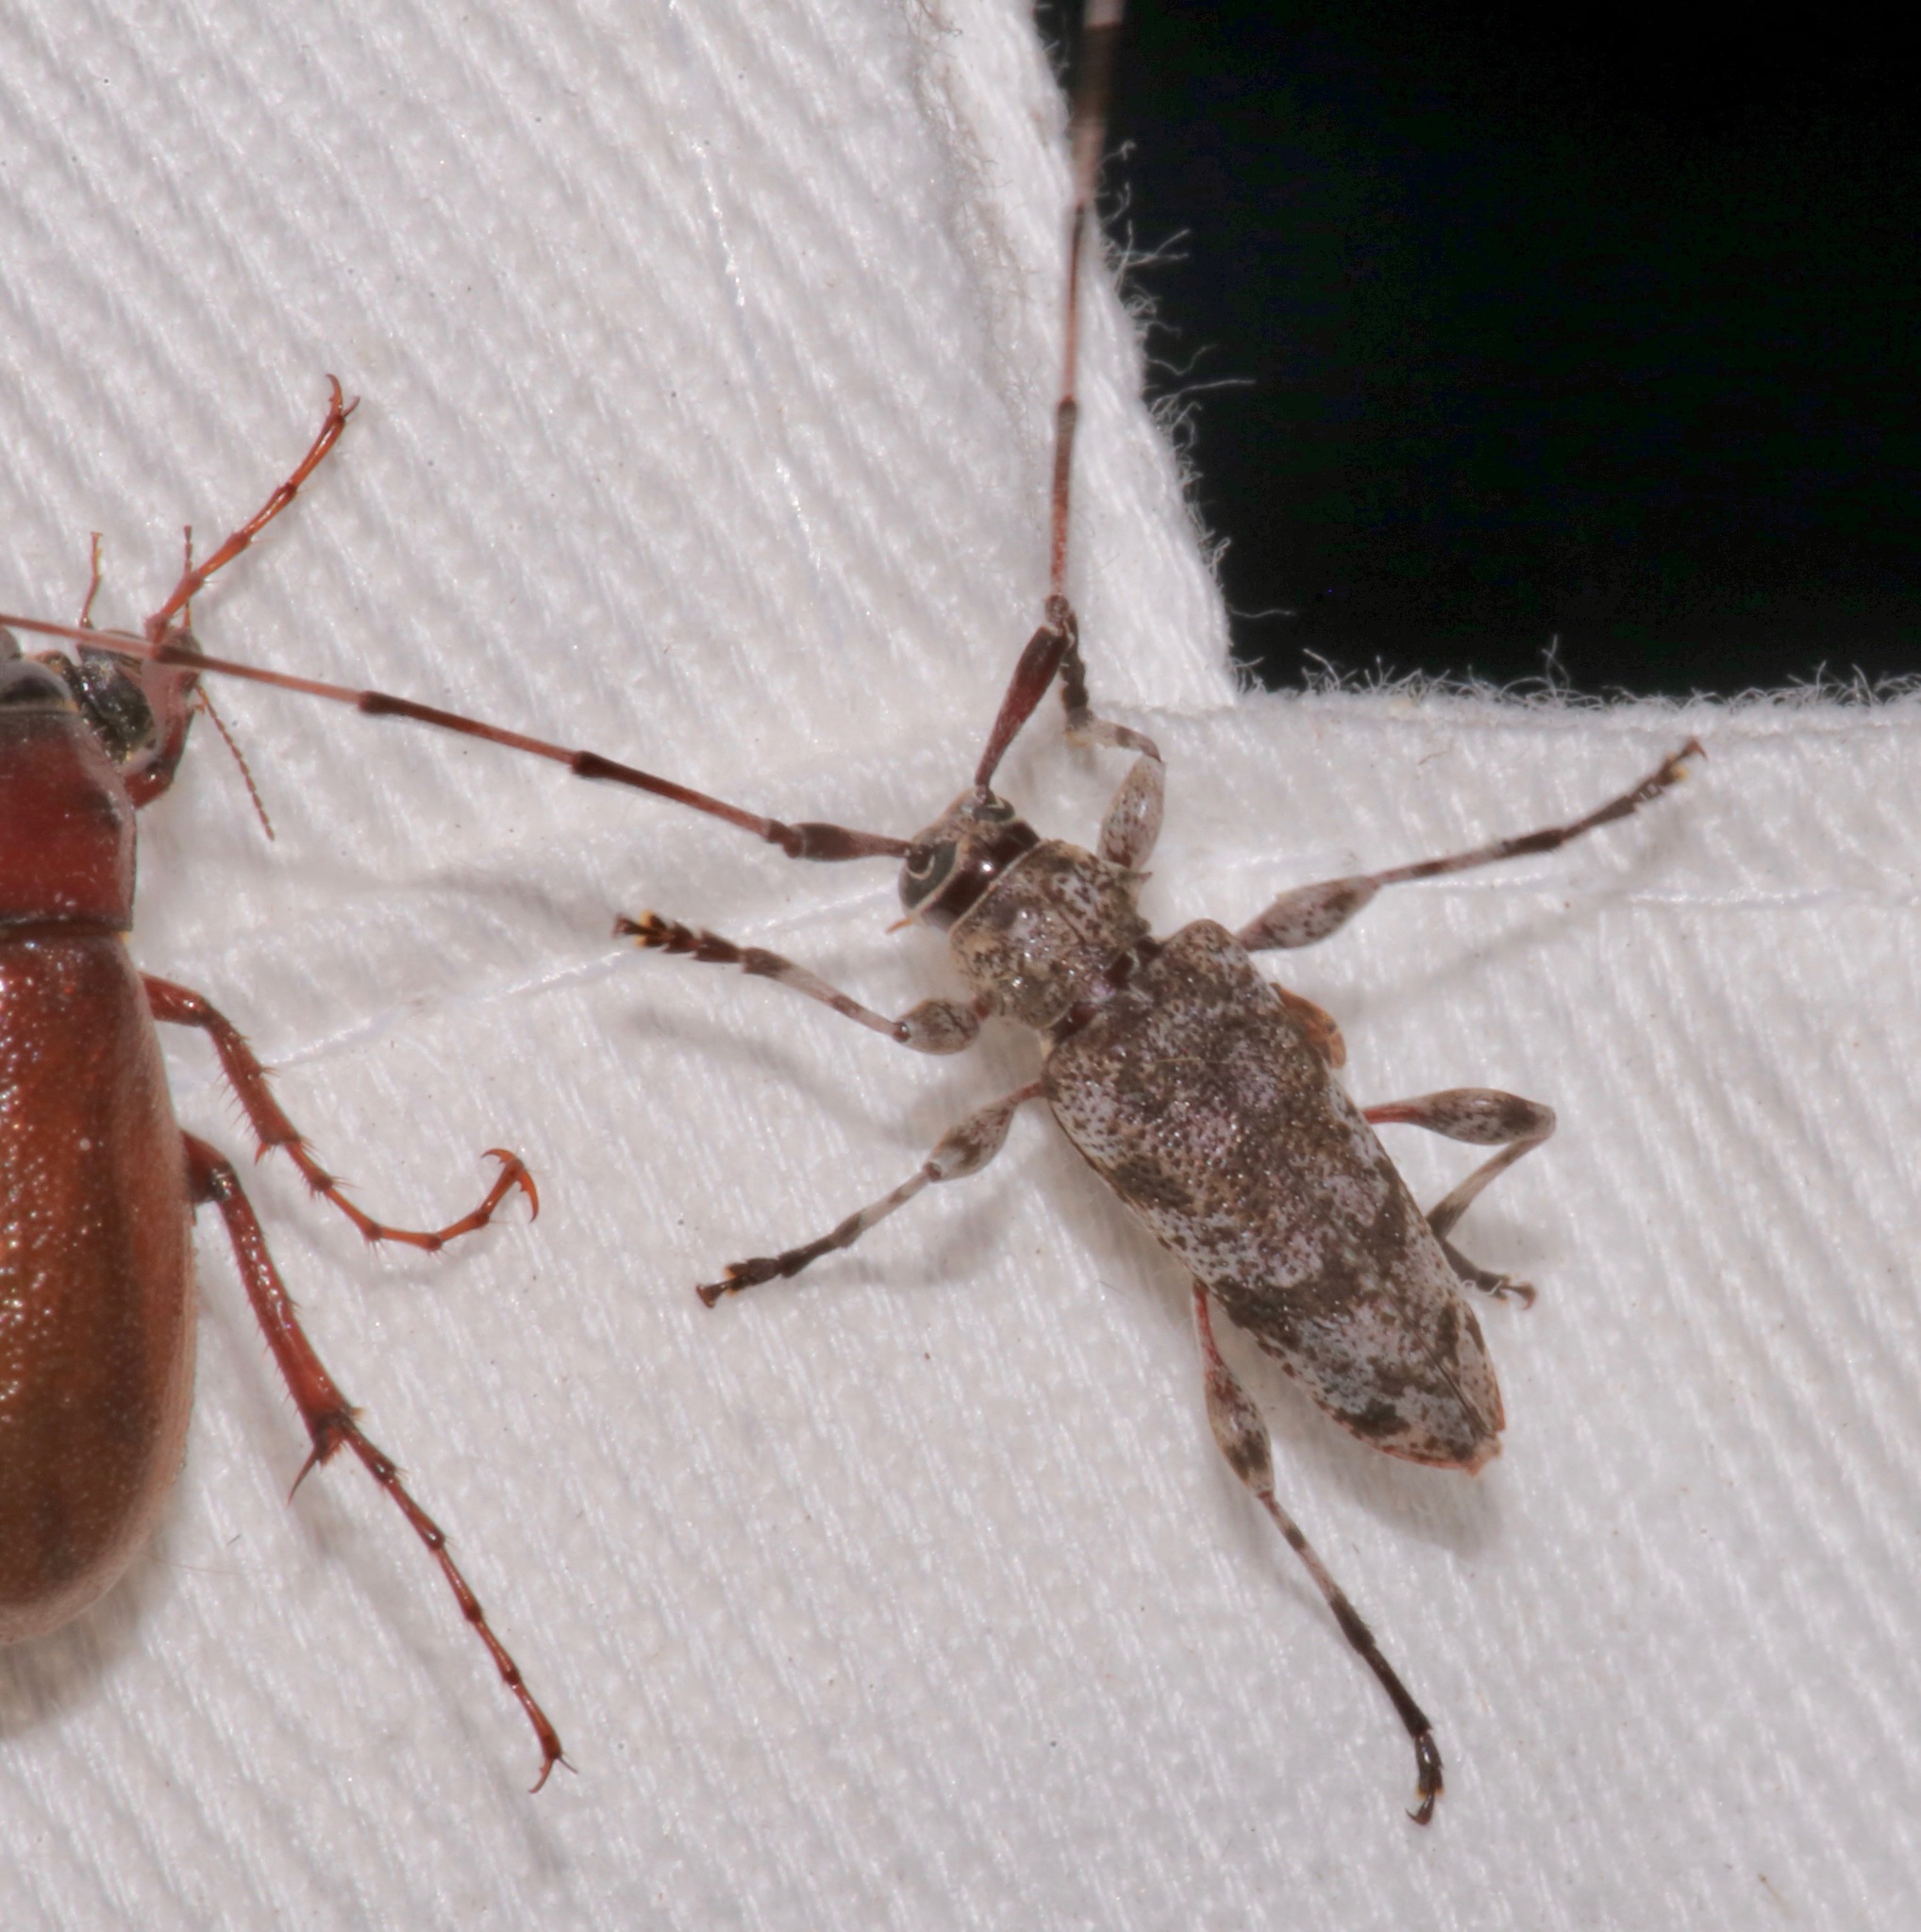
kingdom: Animalia
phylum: Arthropoda
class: Insecta
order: Coleoptera
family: Cerambycidae
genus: Acanthocinus
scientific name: Acanthocinus obsoletus
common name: Roundheaded borer
